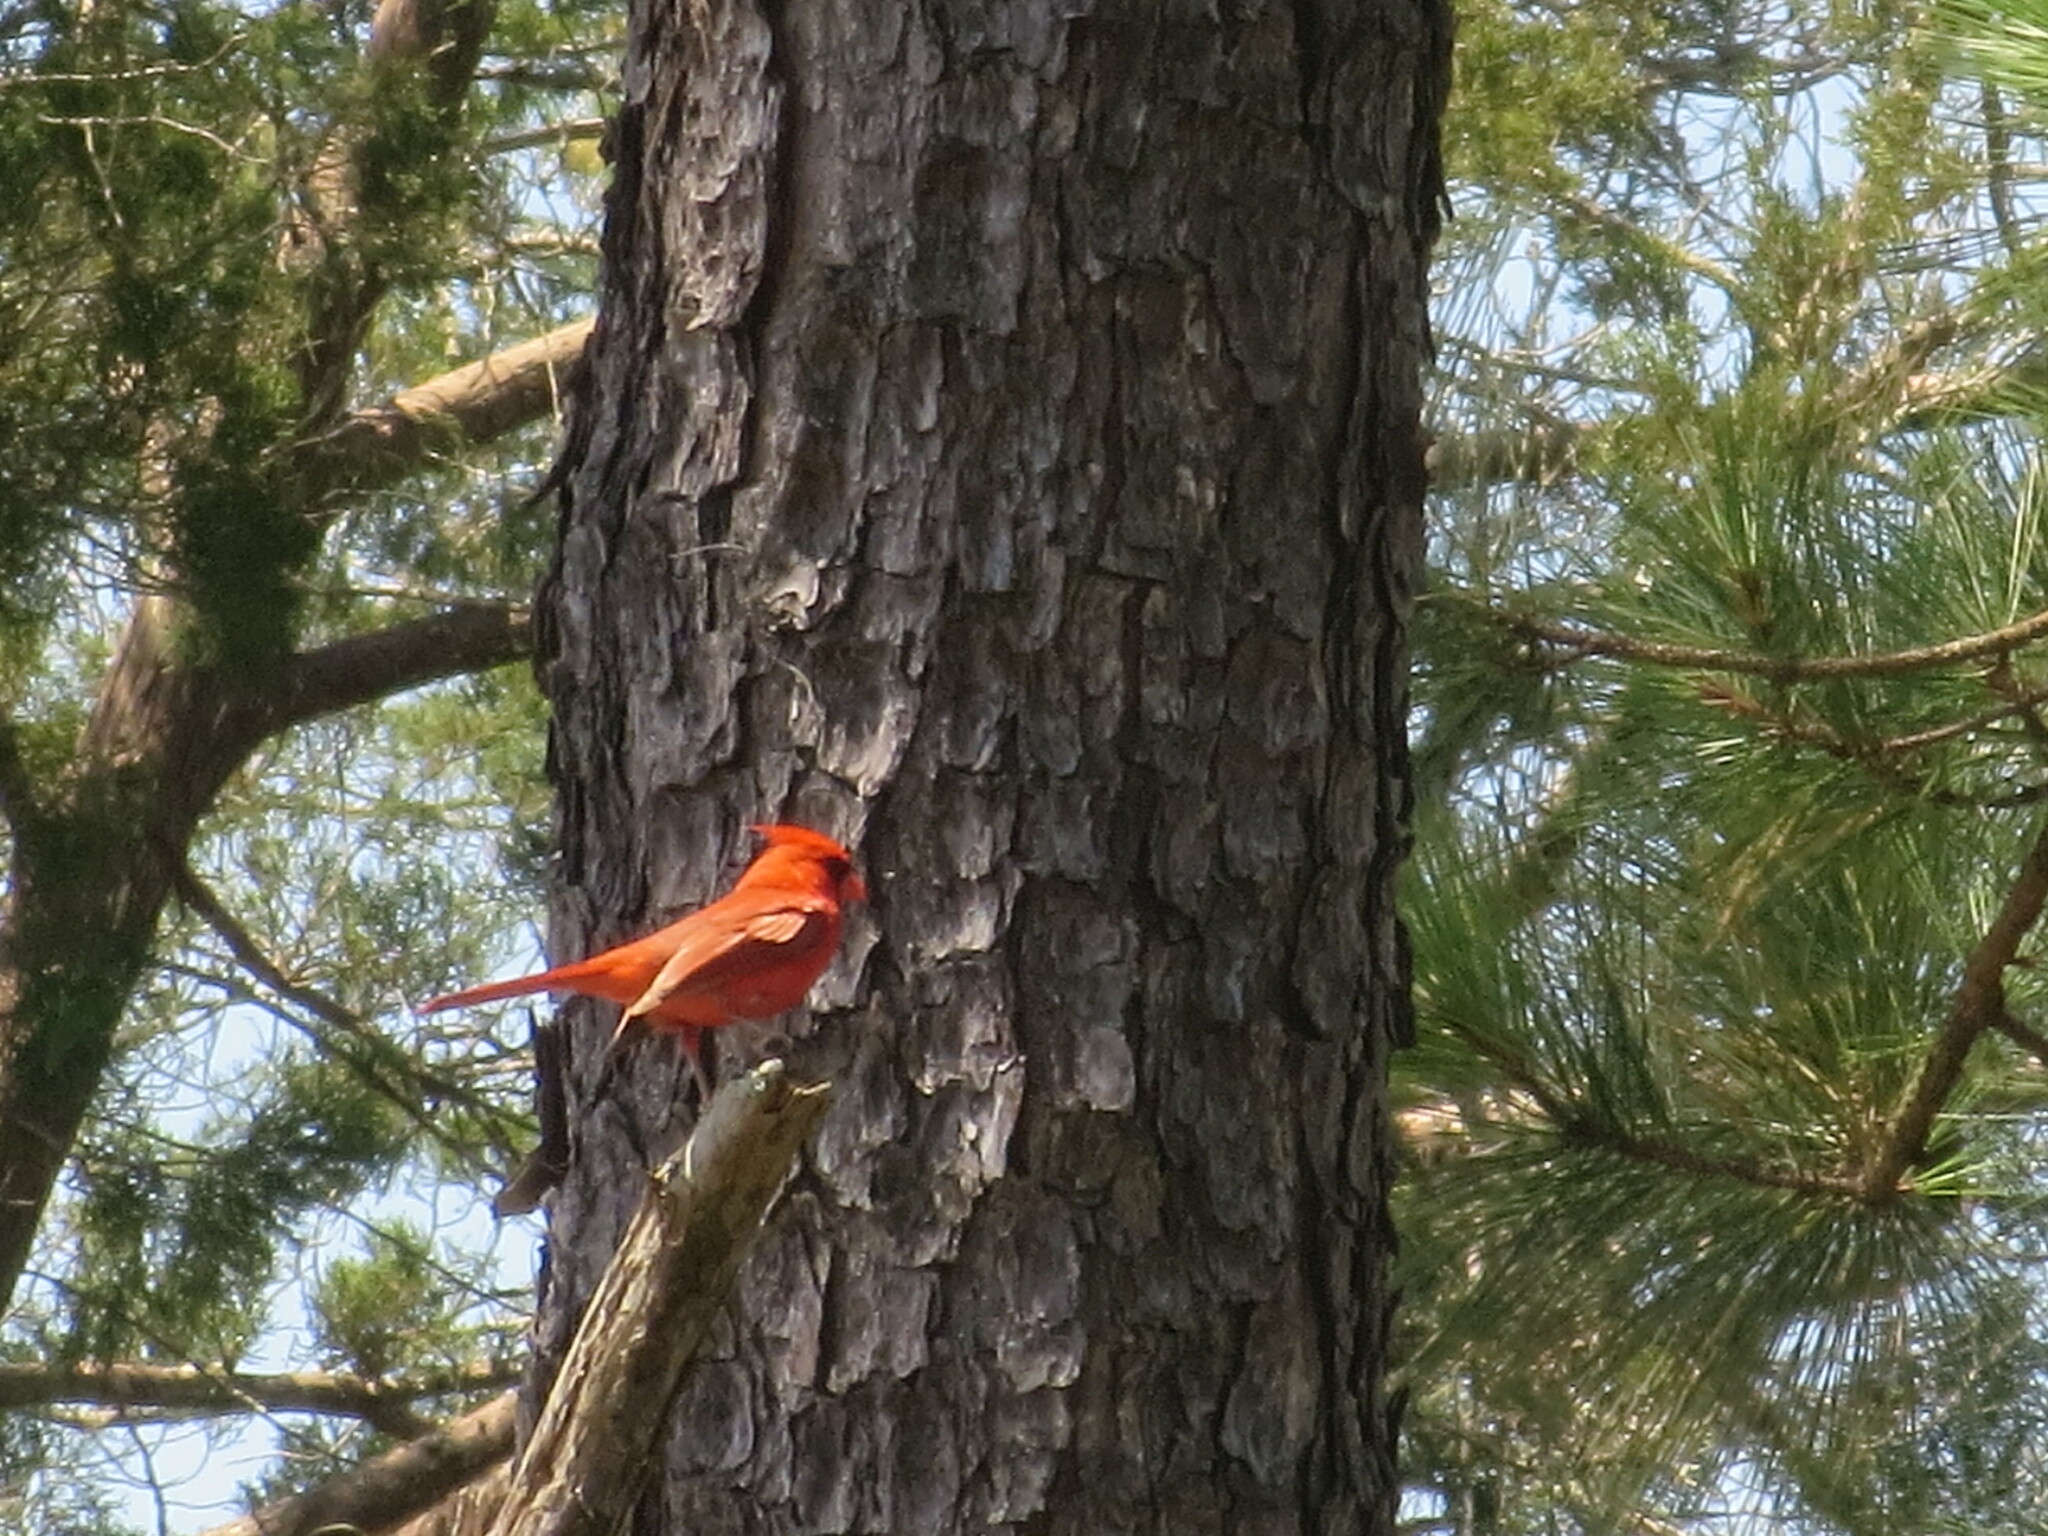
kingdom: Animalia
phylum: Chordata
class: Aves
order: Passeriformes
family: Cardinalidae
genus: Cardinalis
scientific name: Cardinalis cardinalis
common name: Northern cardinal
